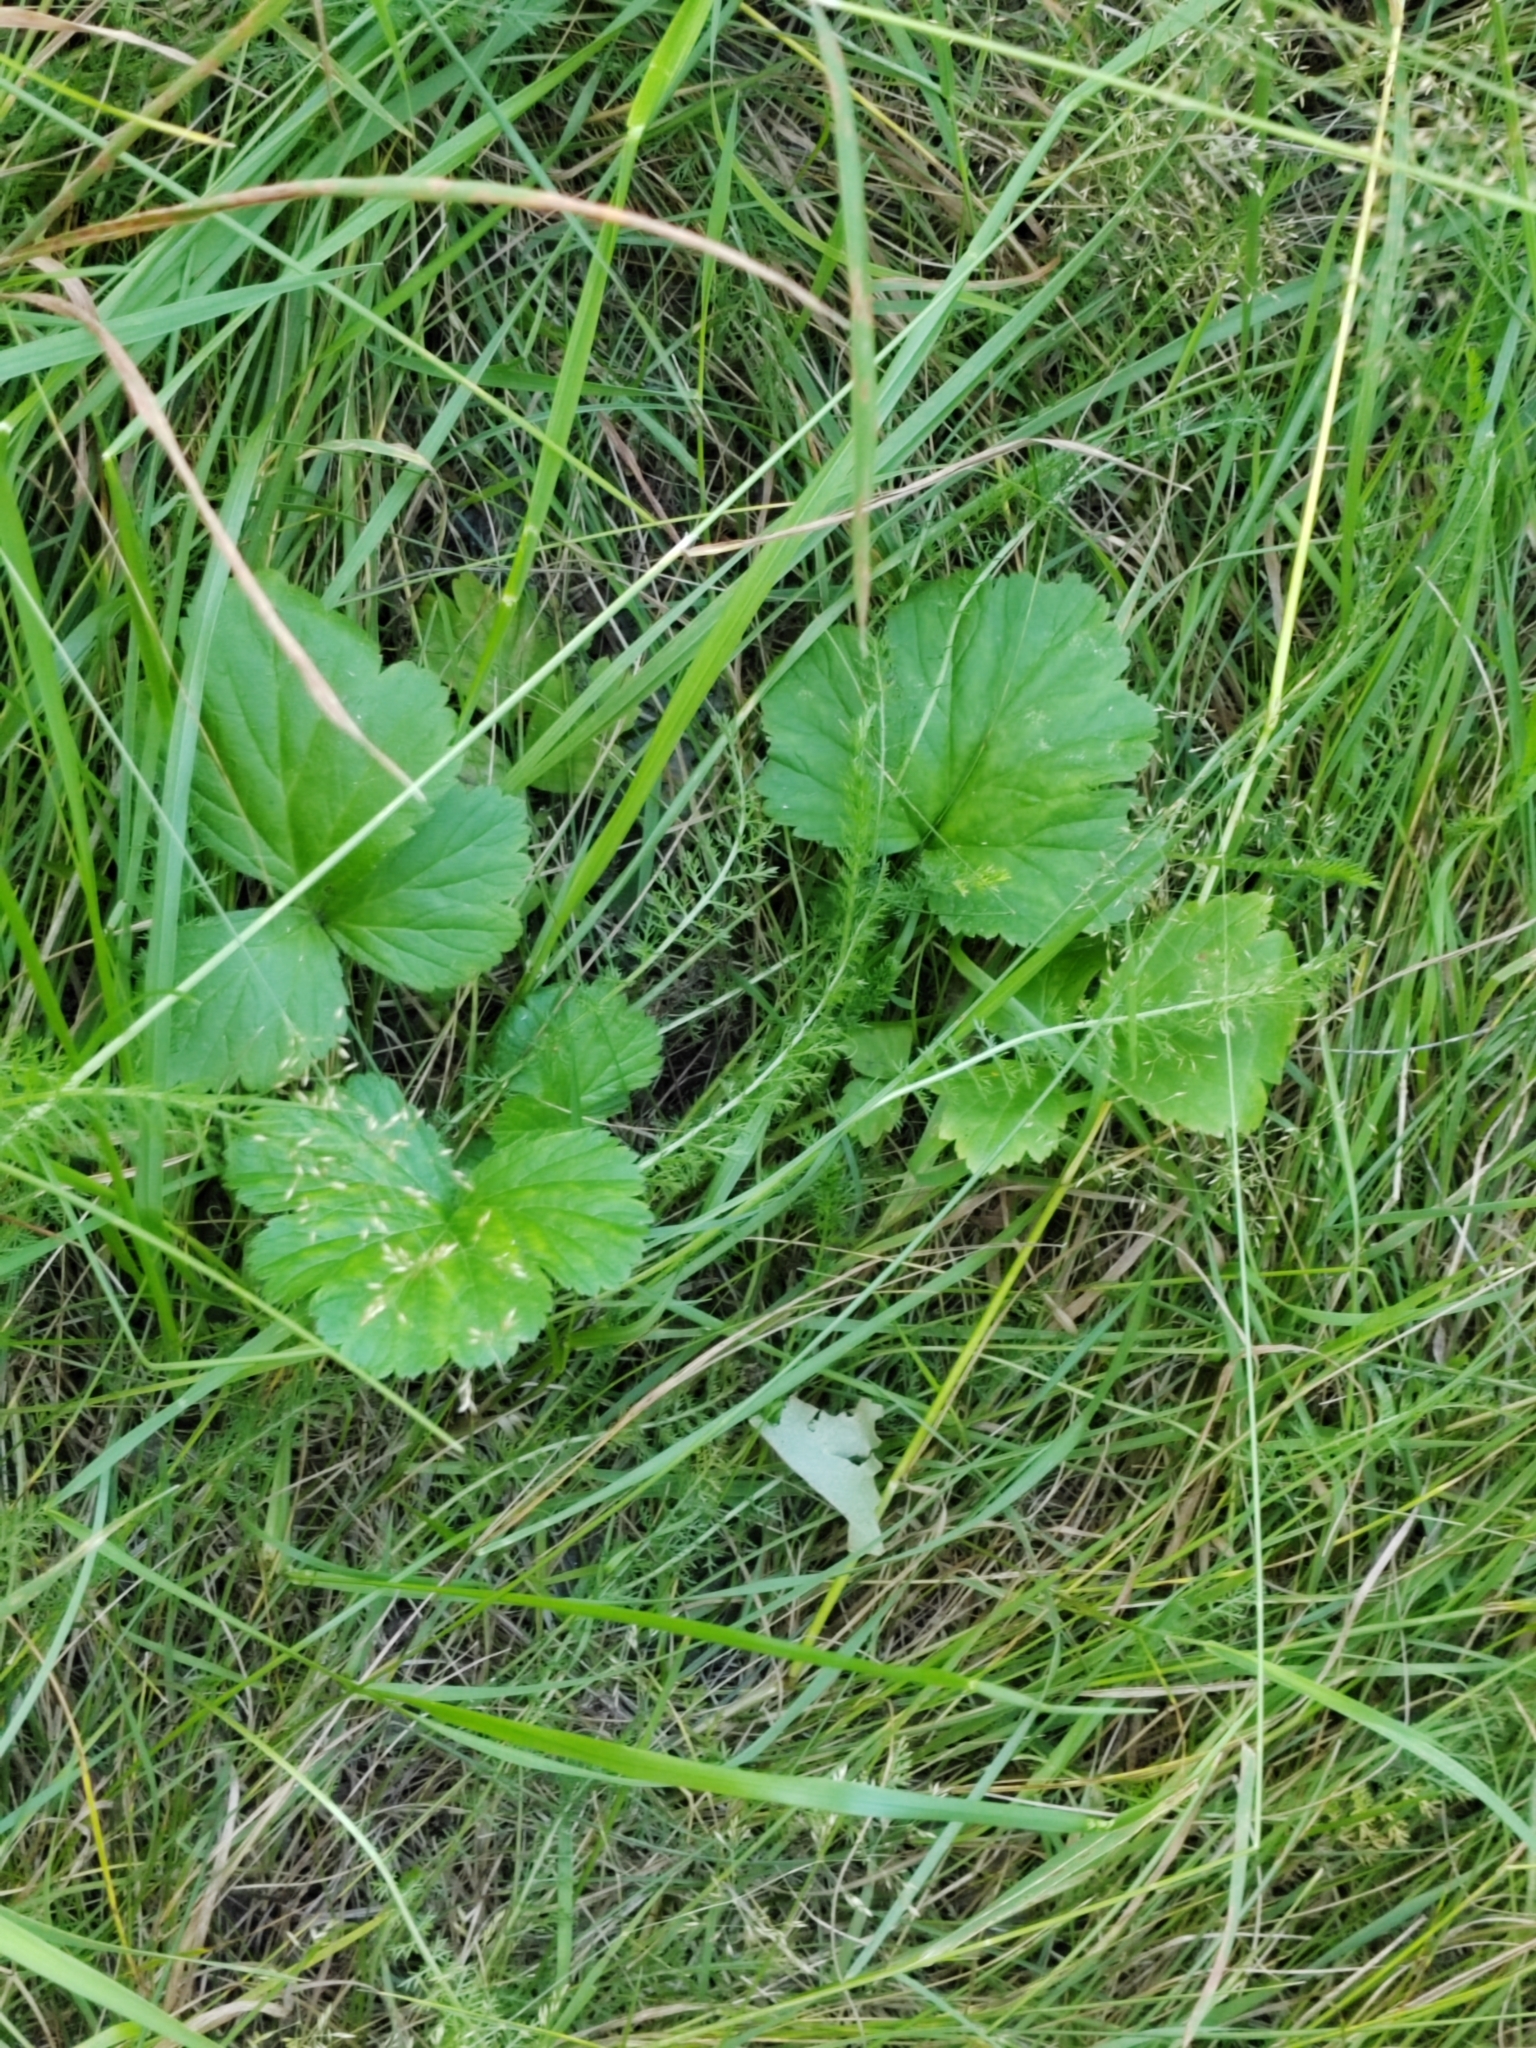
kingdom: Plantae
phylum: Tracheophyta
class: Magnoliopsida
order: Rosales
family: Rosaceae
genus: Geum
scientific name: Geum aleppicum
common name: Yellow avens
